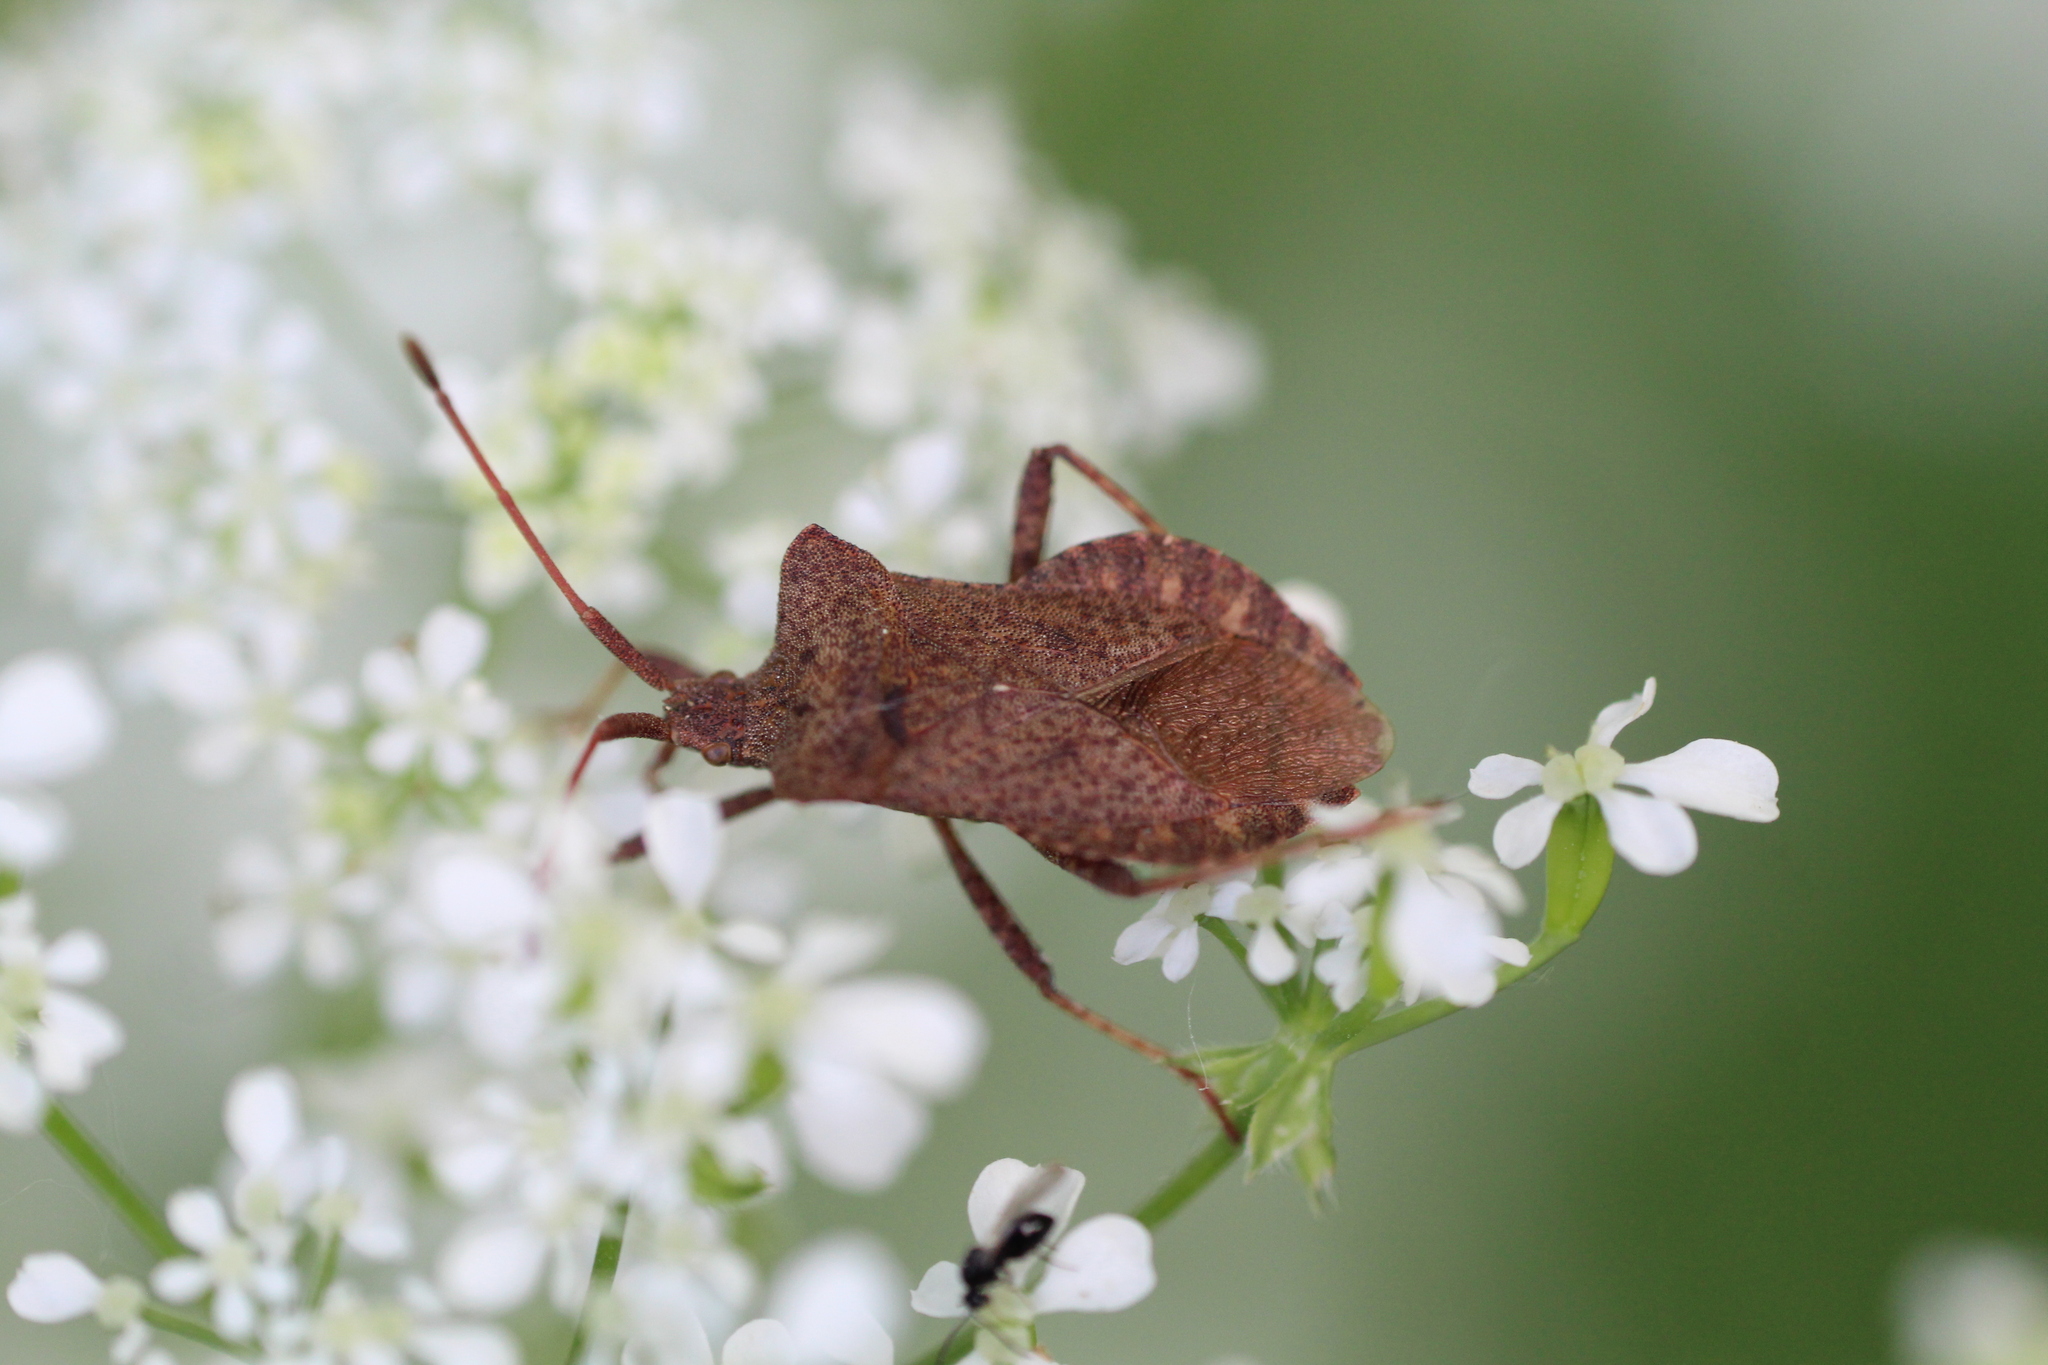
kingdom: Animalia
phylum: Arthropoda
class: Insecta
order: Hemiptera
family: Coreidae
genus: Coreus
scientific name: Coreus marginatus
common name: Dock bug
